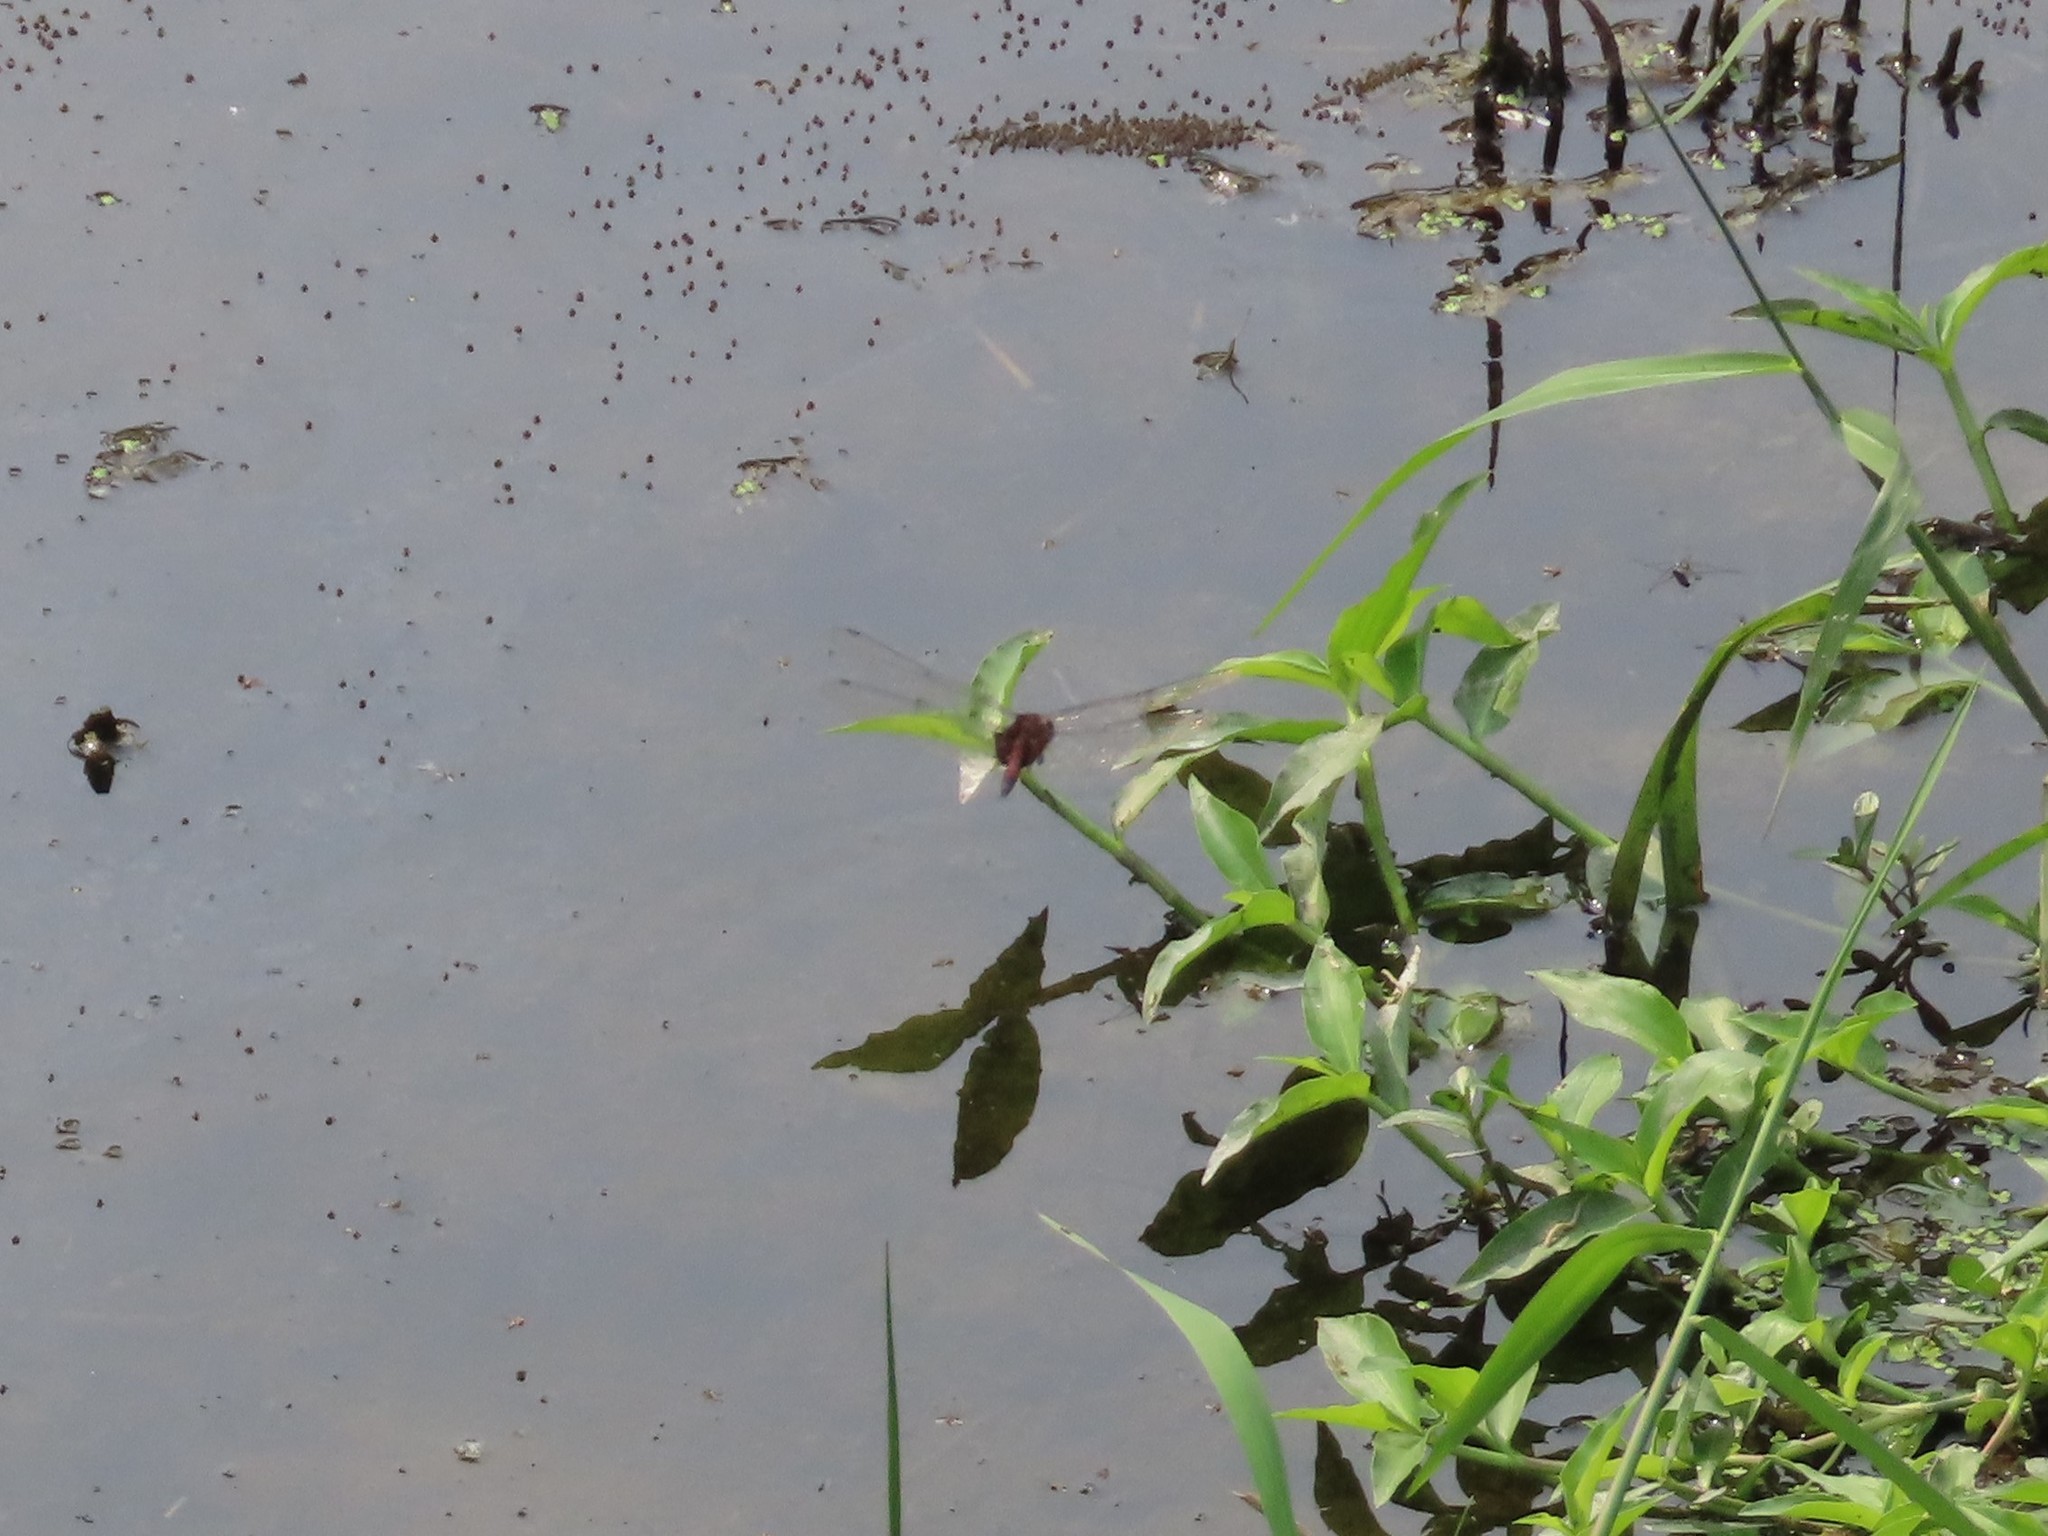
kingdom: Animalia
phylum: Arthropoda
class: Insecta
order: Odonata
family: Libellulidae
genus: Tramea
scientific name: Tramea limbata
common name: Ferruginous glider
